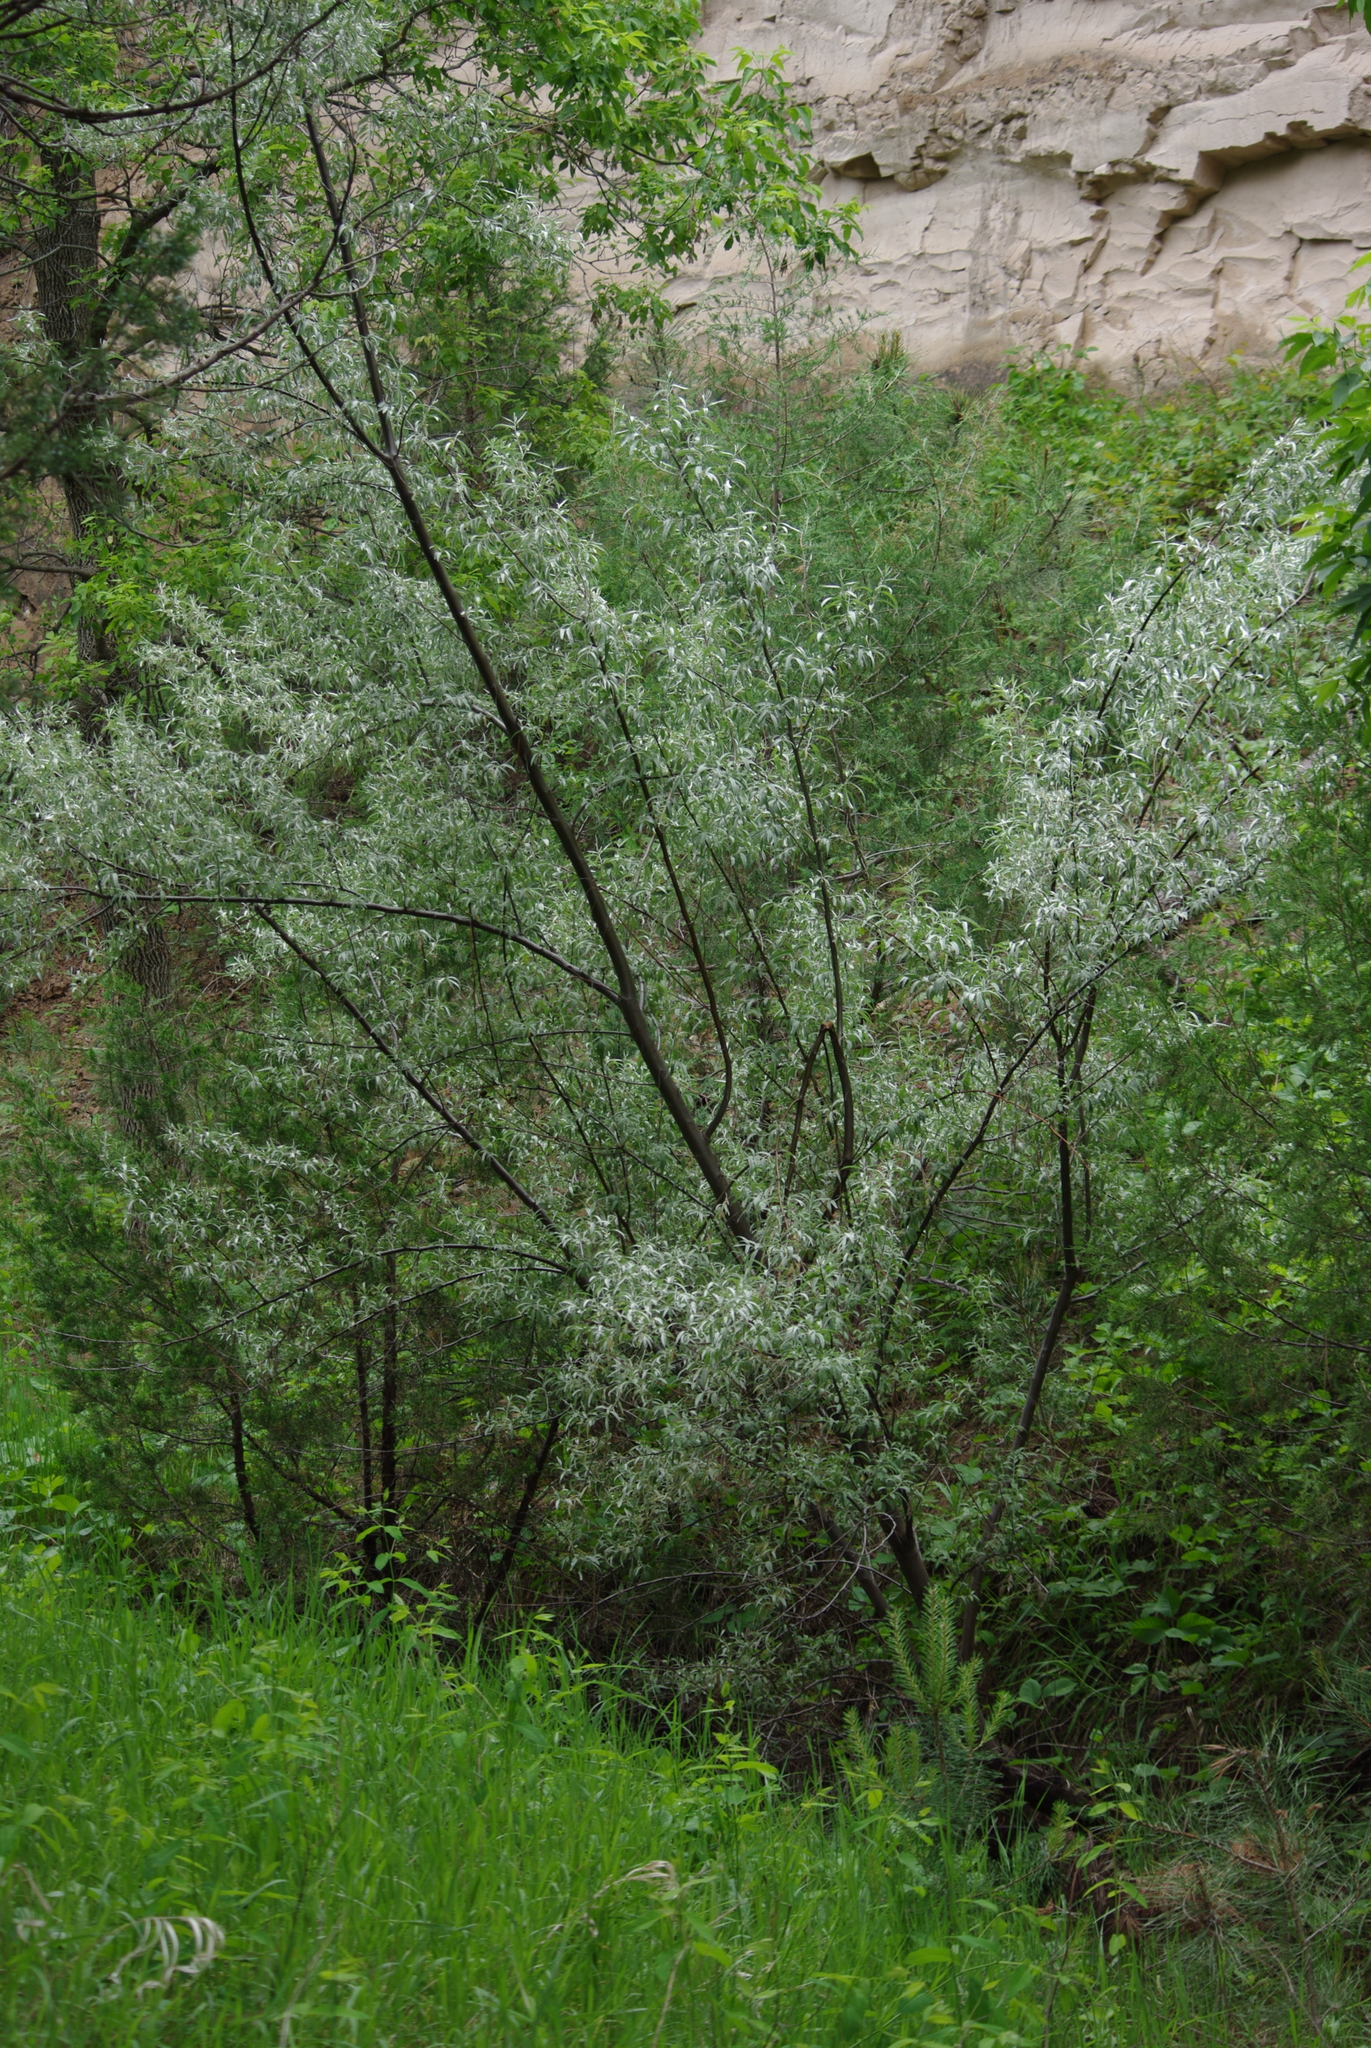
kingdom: Plantae
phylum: Tracheophyta
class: Magnoliopsida
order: Rosales
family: Elaeagnaceae
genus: Elaeagnus
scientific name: Elaeagnus angustifolia
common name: Russian olive
